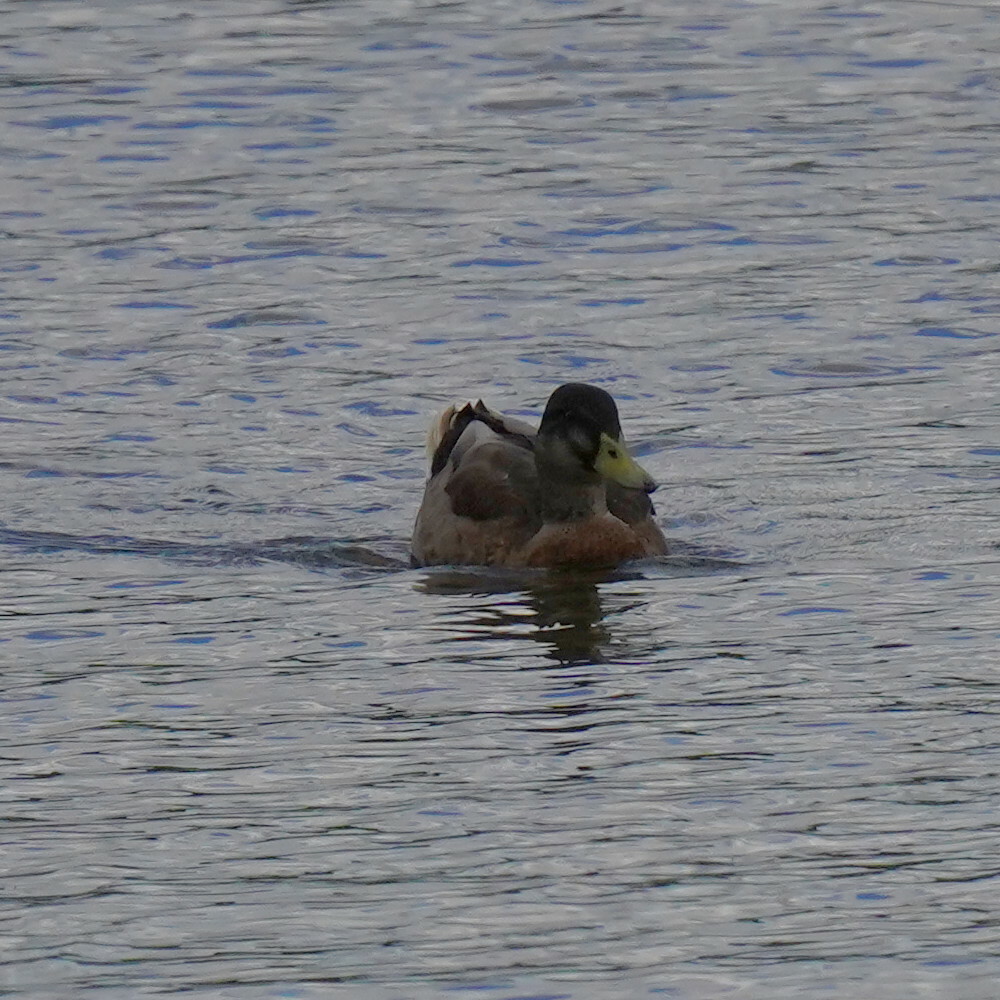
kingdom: Animalia
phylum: Chordata
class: Aves
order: Anseriformes
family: Anatidae
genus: Anas
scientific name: Anas platyrhynchos
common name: Mallard
